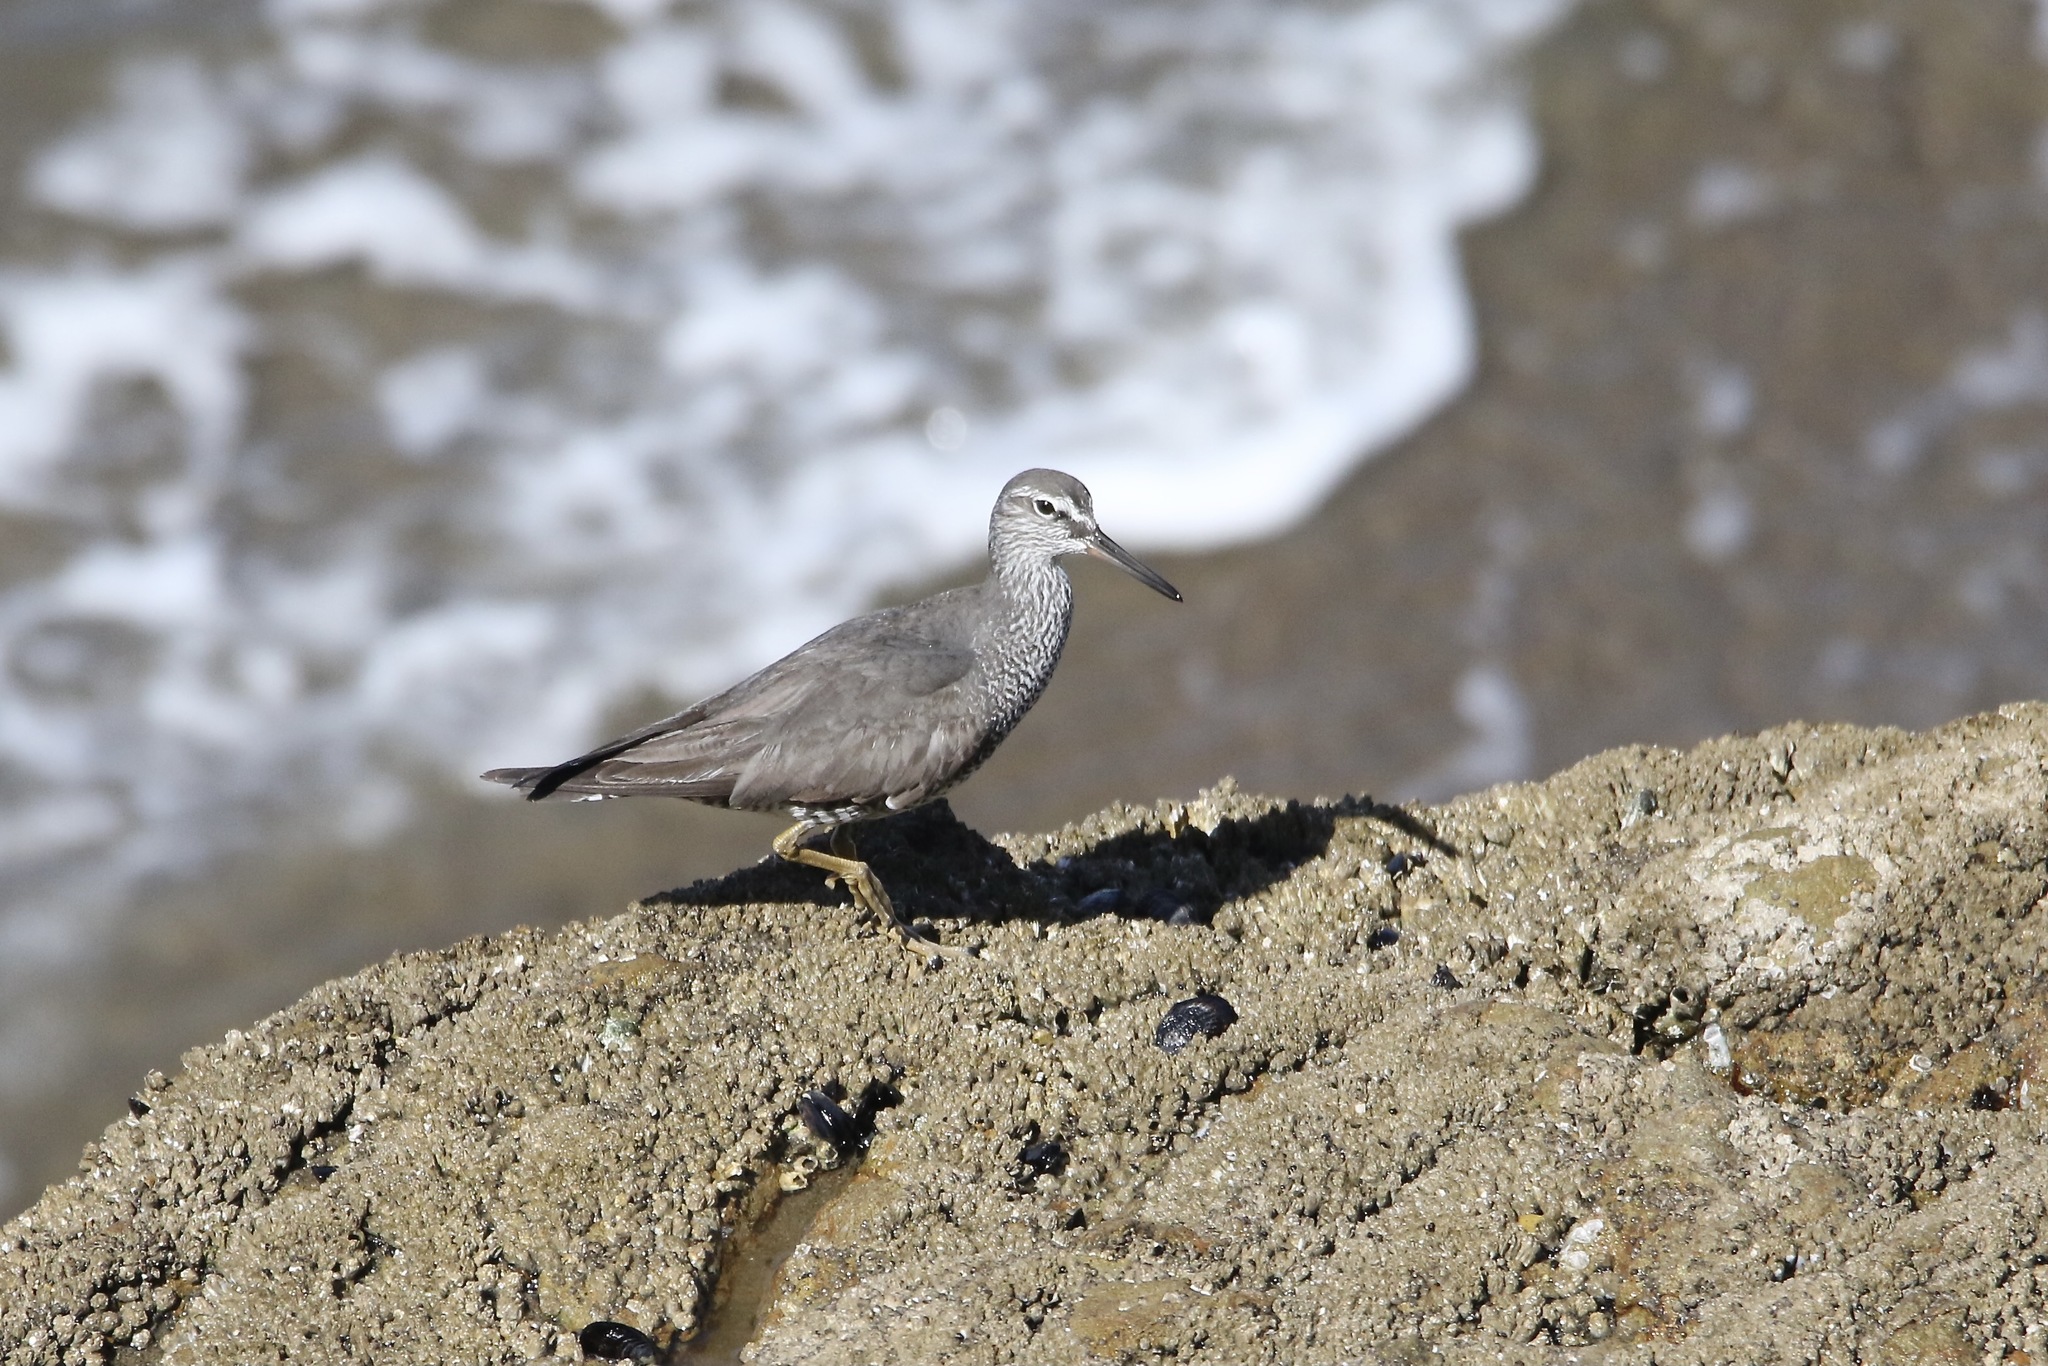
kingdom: Animalia
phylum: Chordata
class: Aves
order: Charadriiformes
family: Scolopacidae
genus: Tringa
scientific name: Tringa incana
